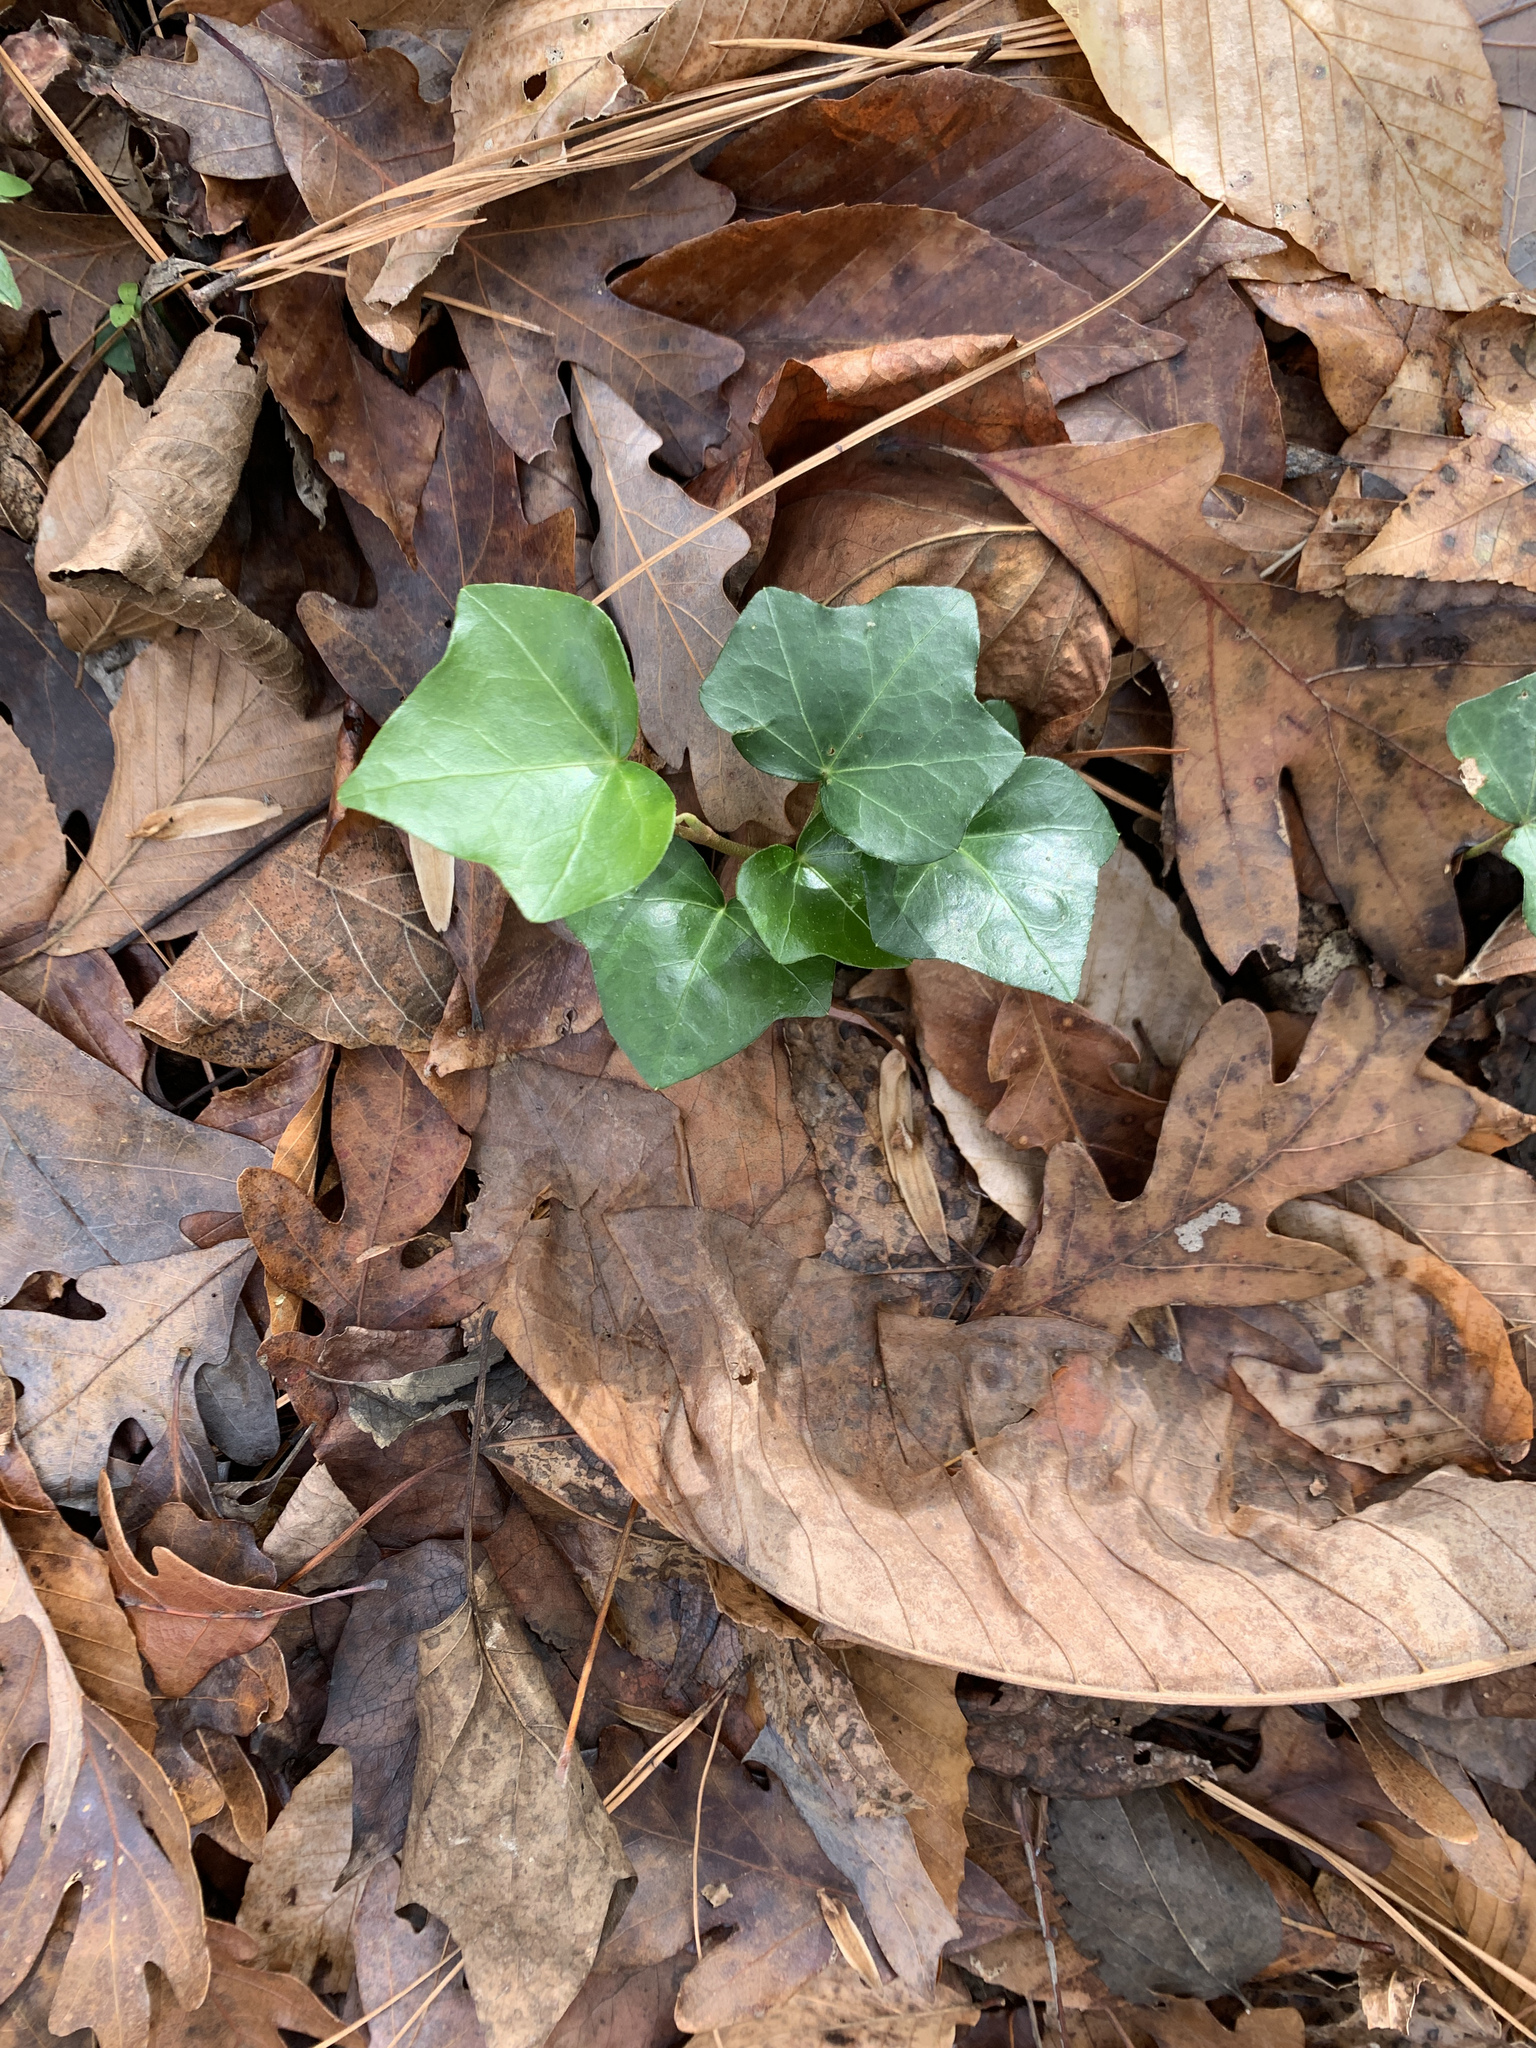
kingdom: Plantae
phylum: Tracheophyta
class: Magnoliopsida
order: Apiales
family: Araliaceae
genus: Hedera
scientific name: Hedera helix
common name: Ivy
